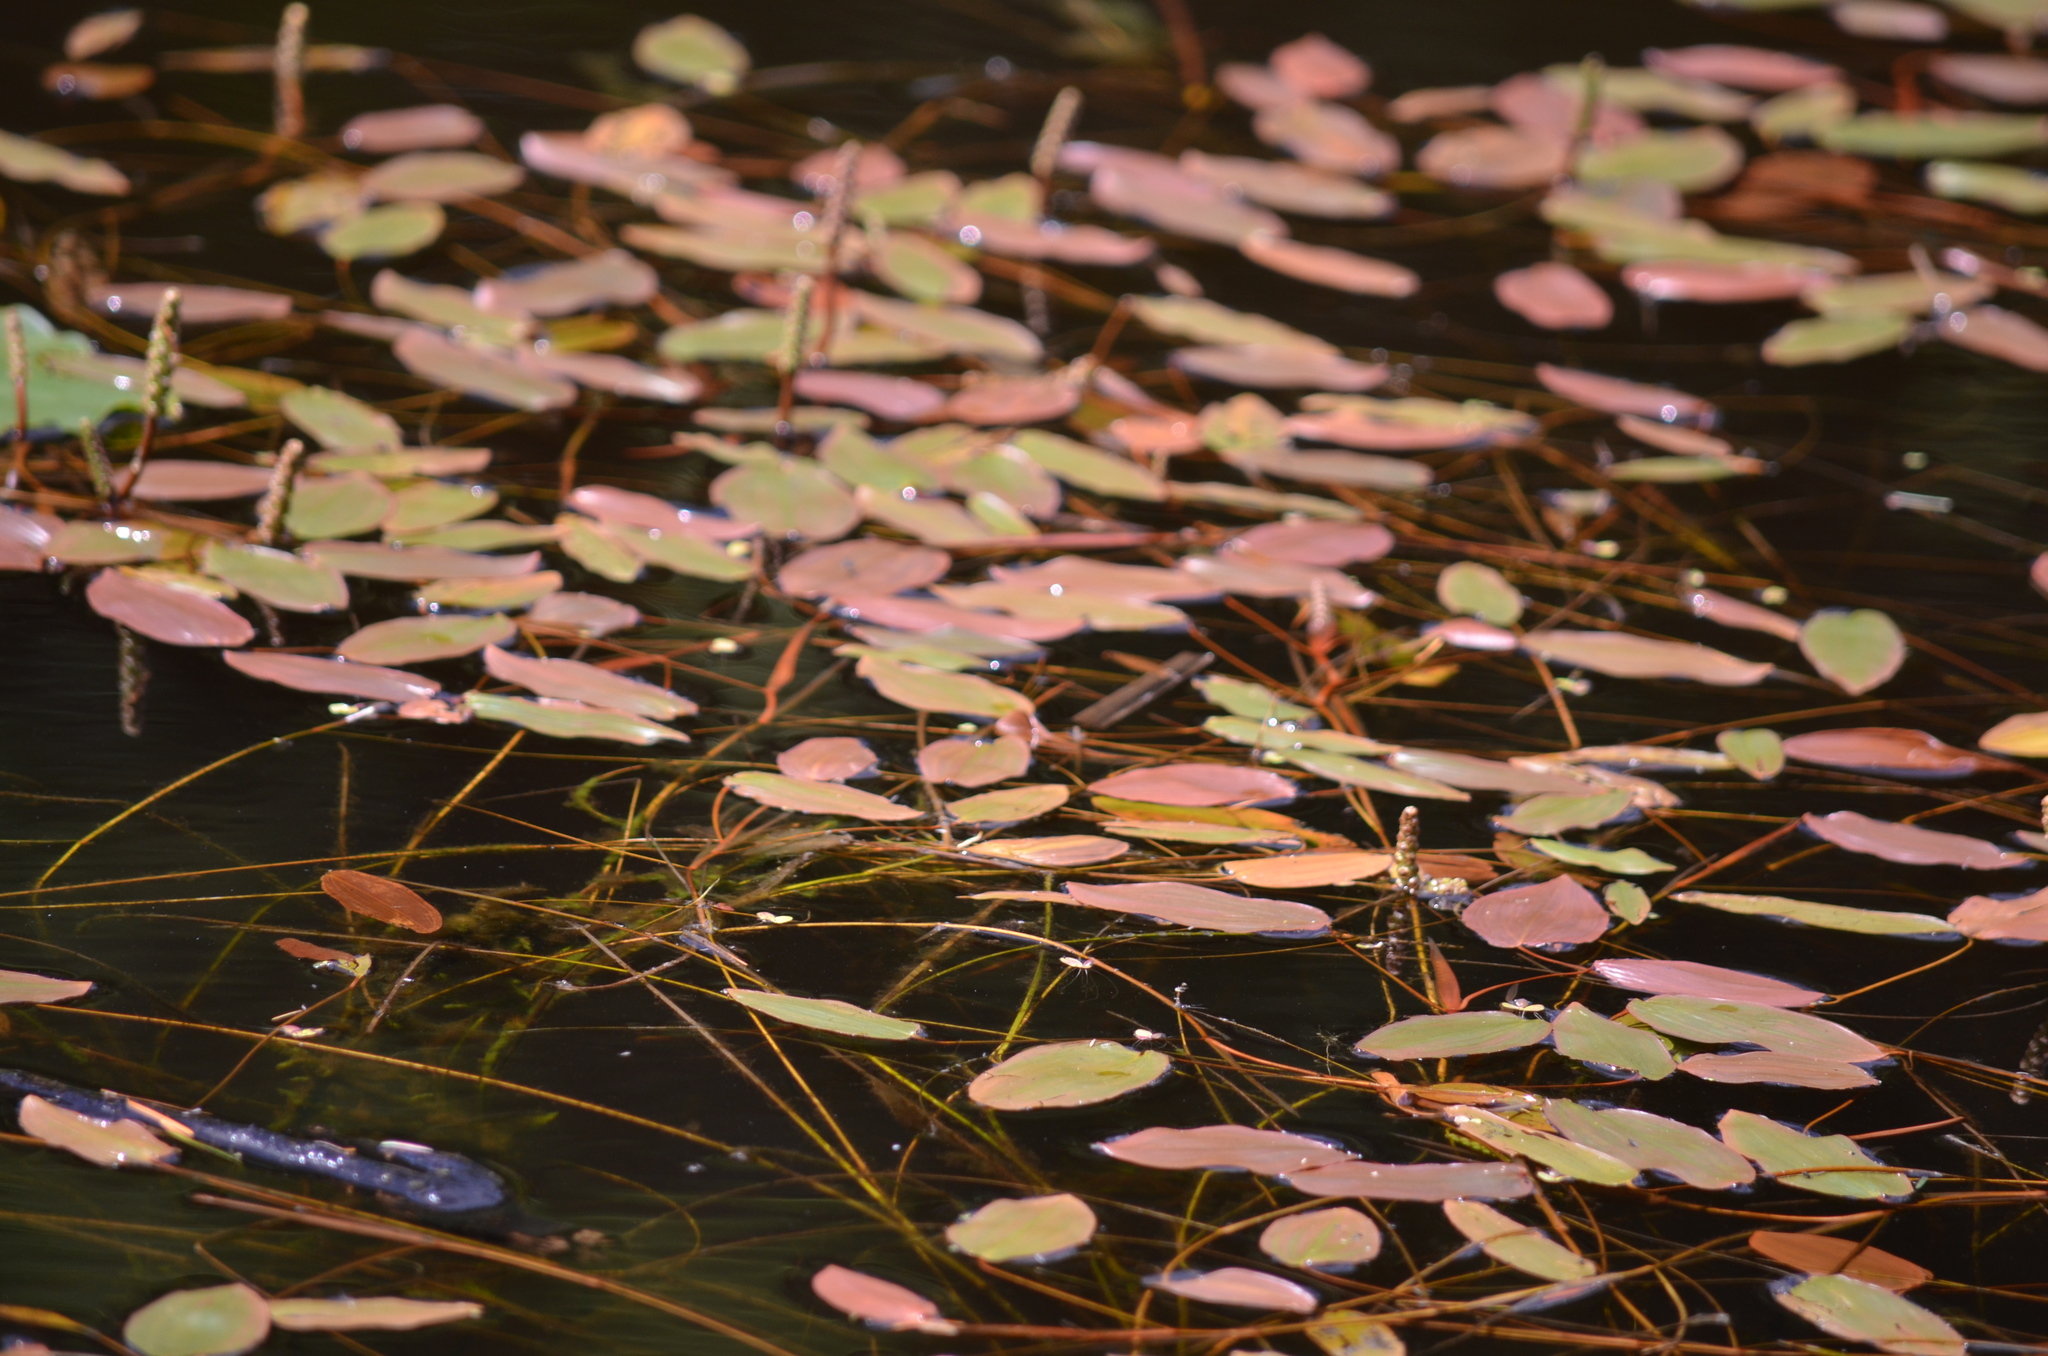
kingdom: Plantae
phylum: Tracheophyta
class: Liliopsida
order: Alismatales
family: Potamogetonaceae
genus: Potamogeton
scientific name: Potamogeton natans
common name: Broad-leaved pondweed
